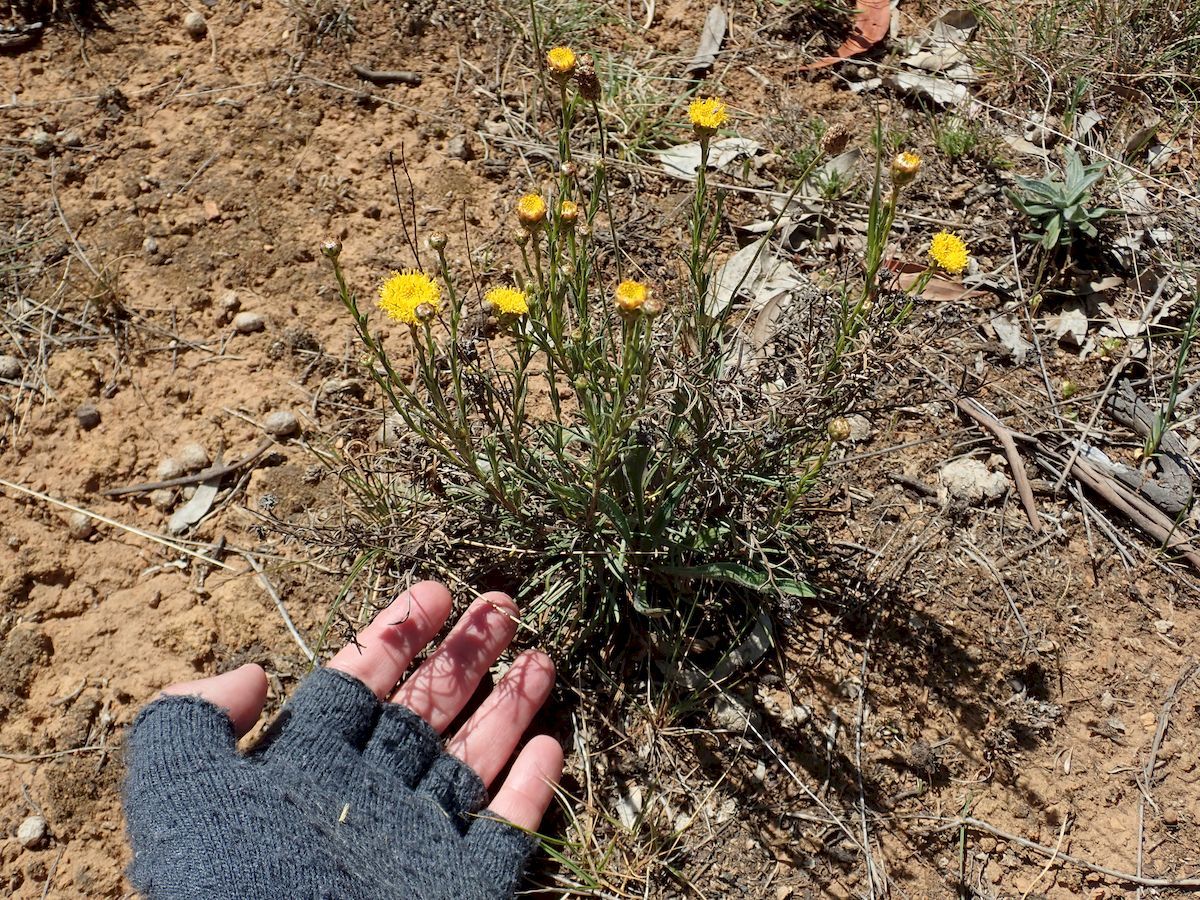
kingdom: Plantae
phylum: Tracheophyta
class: Magnoliopsida
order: Asterales
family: Asteraceae
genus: Rutidosis
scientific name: Rutidosis leptorrhynchoides
